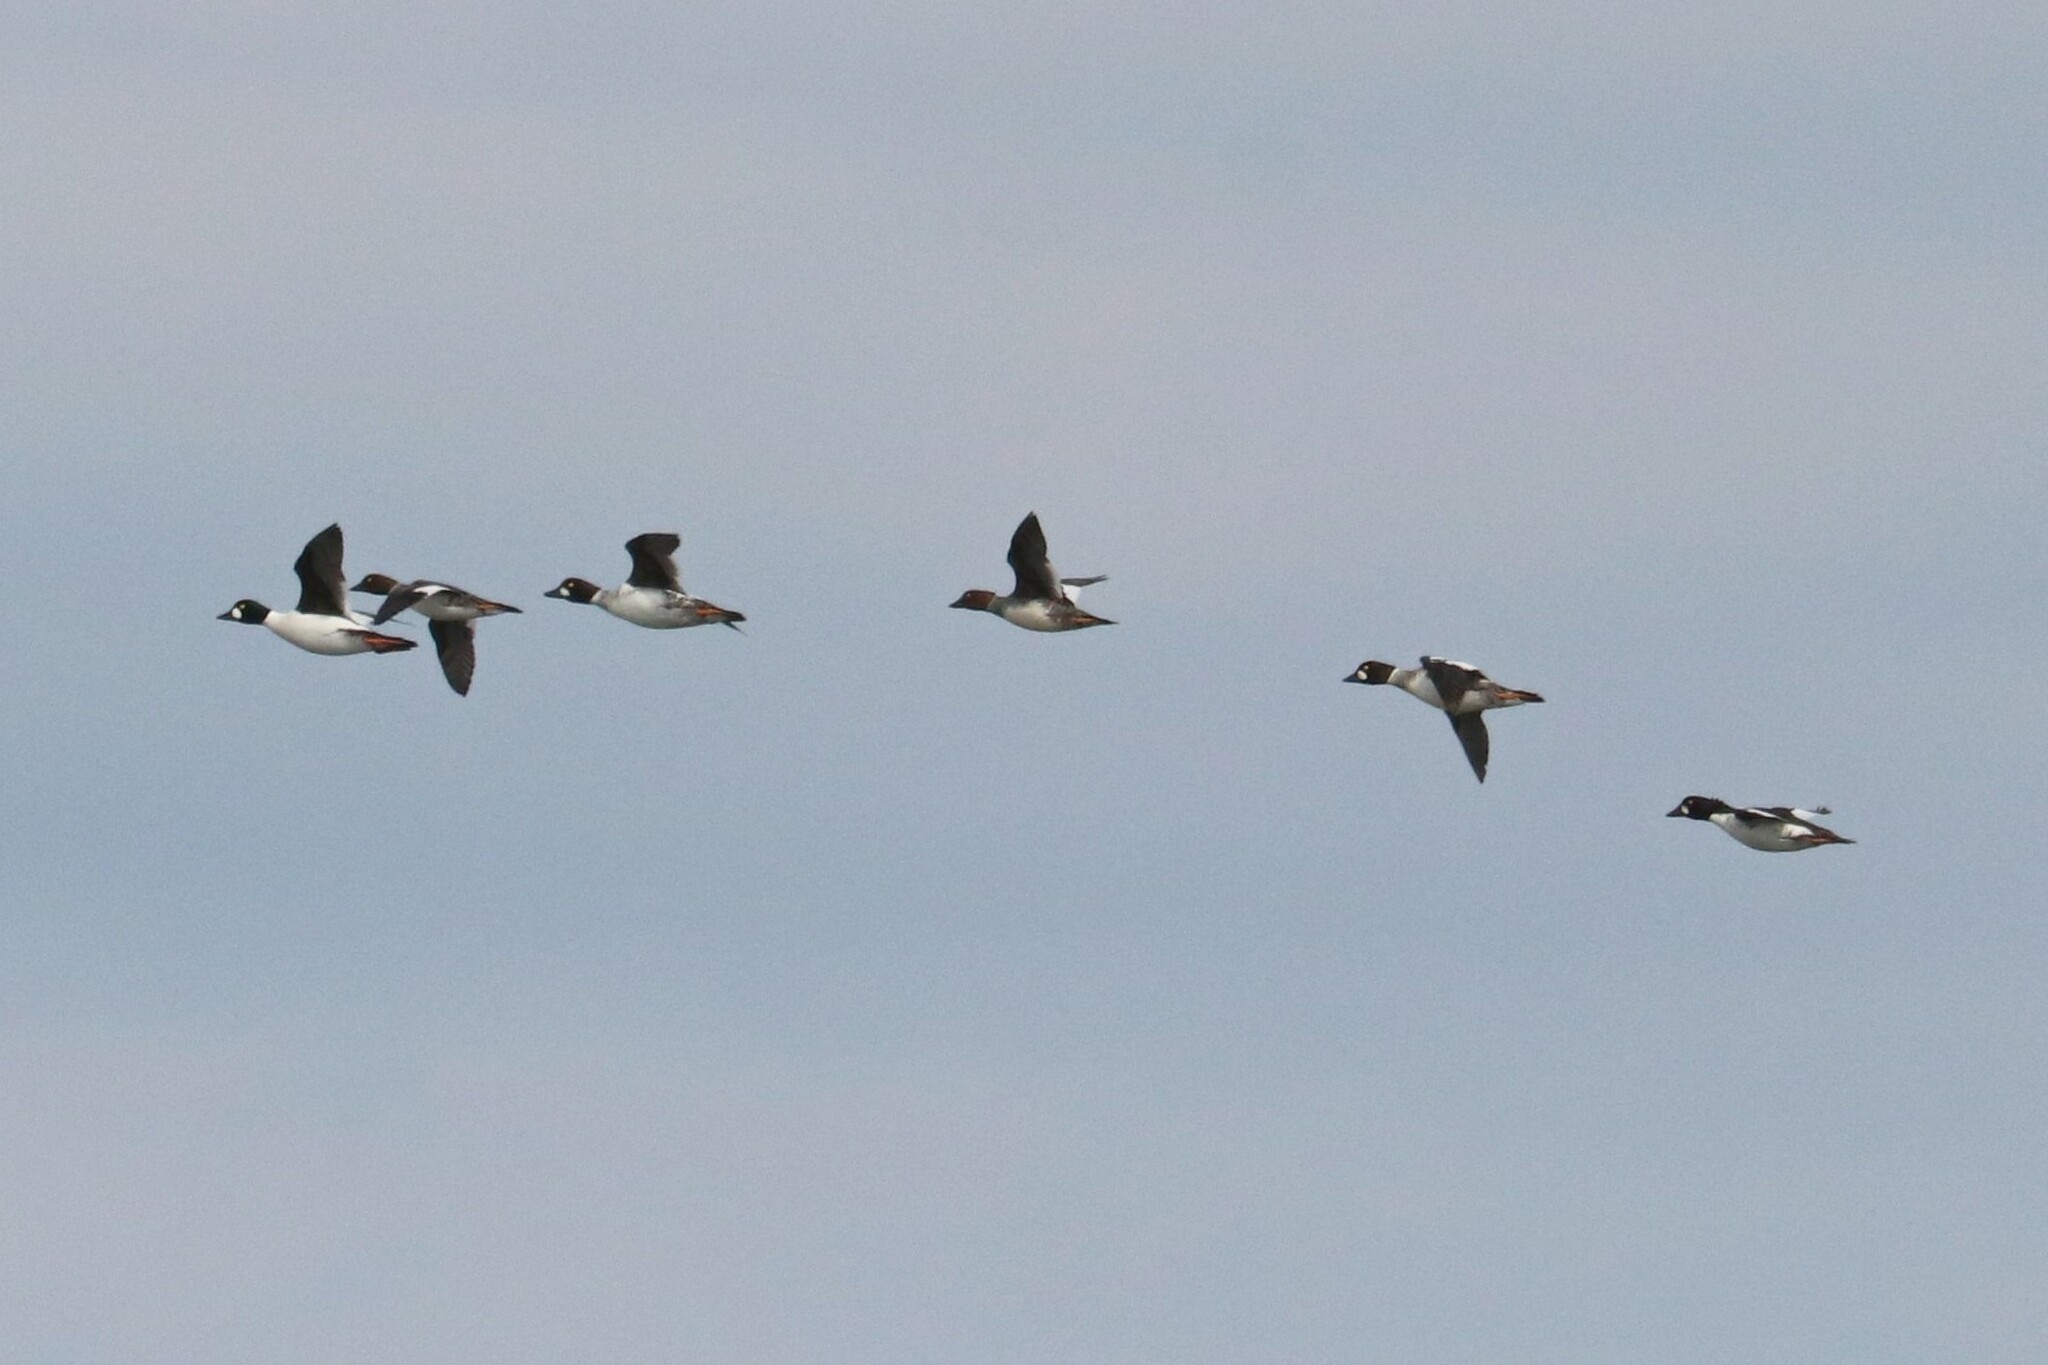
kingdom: Animalia
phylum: Chordata
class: Aves
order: Anseriformes
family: Anatidae
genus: Bucephala
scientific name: Bucephala clangula
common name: Common goldeneye
